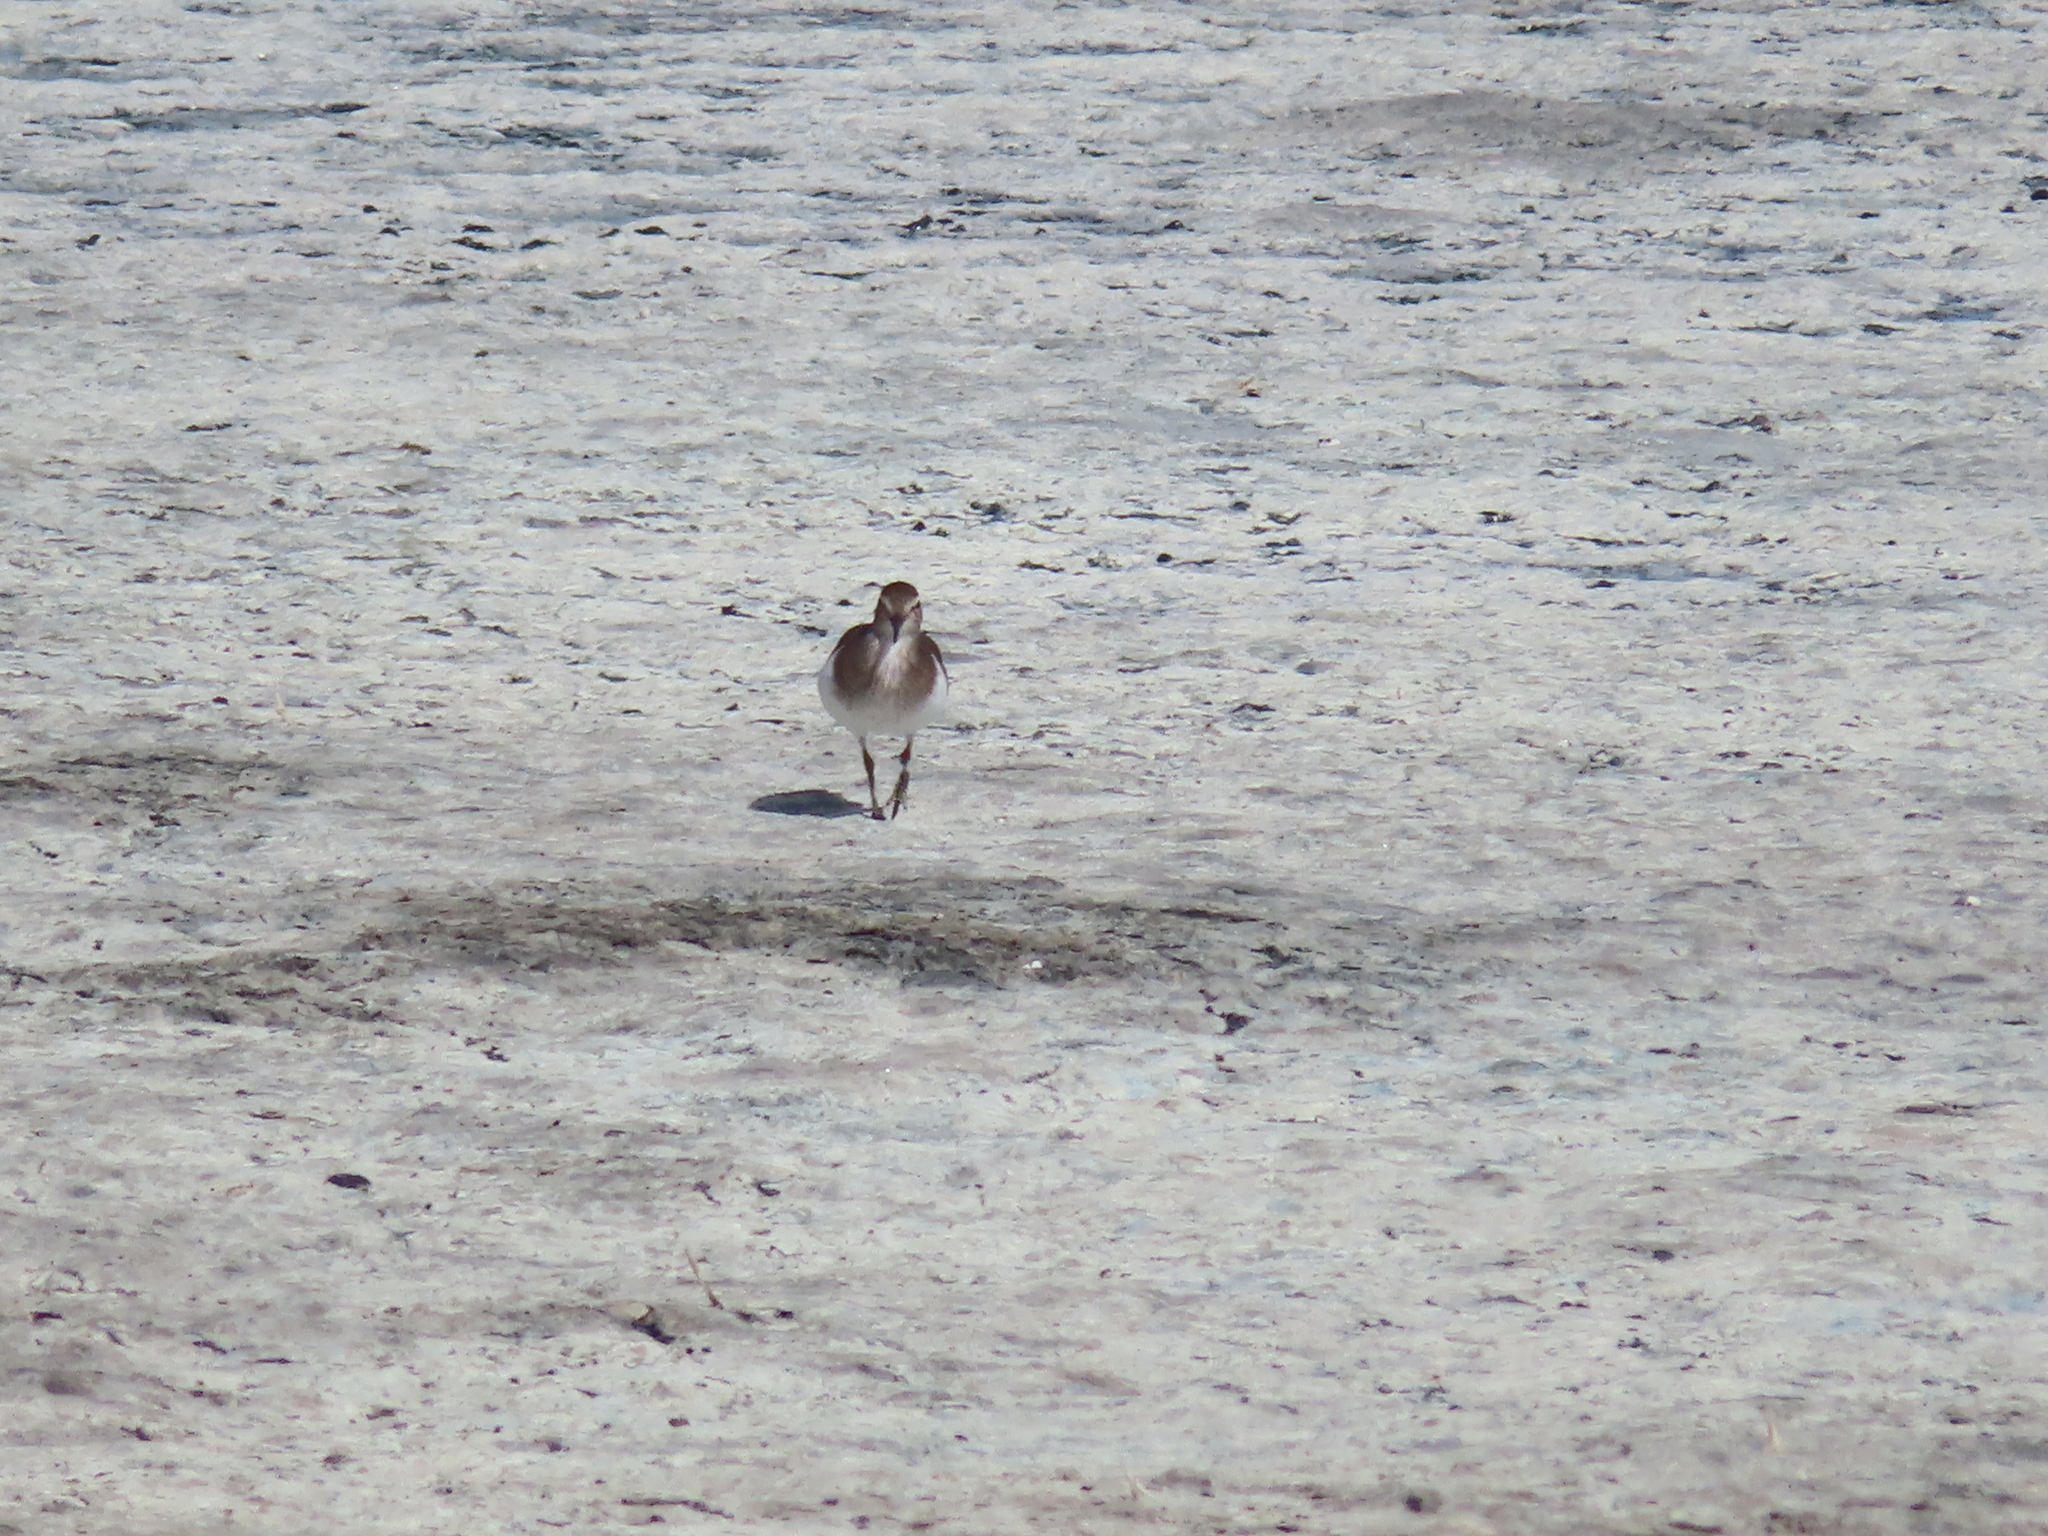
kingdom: Animalia
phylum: Chordata
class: Aves
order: Charadriiformes
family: Scolopacidae
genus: Actitis
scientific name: Actitis hypoleucos
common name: Common sandpiper
